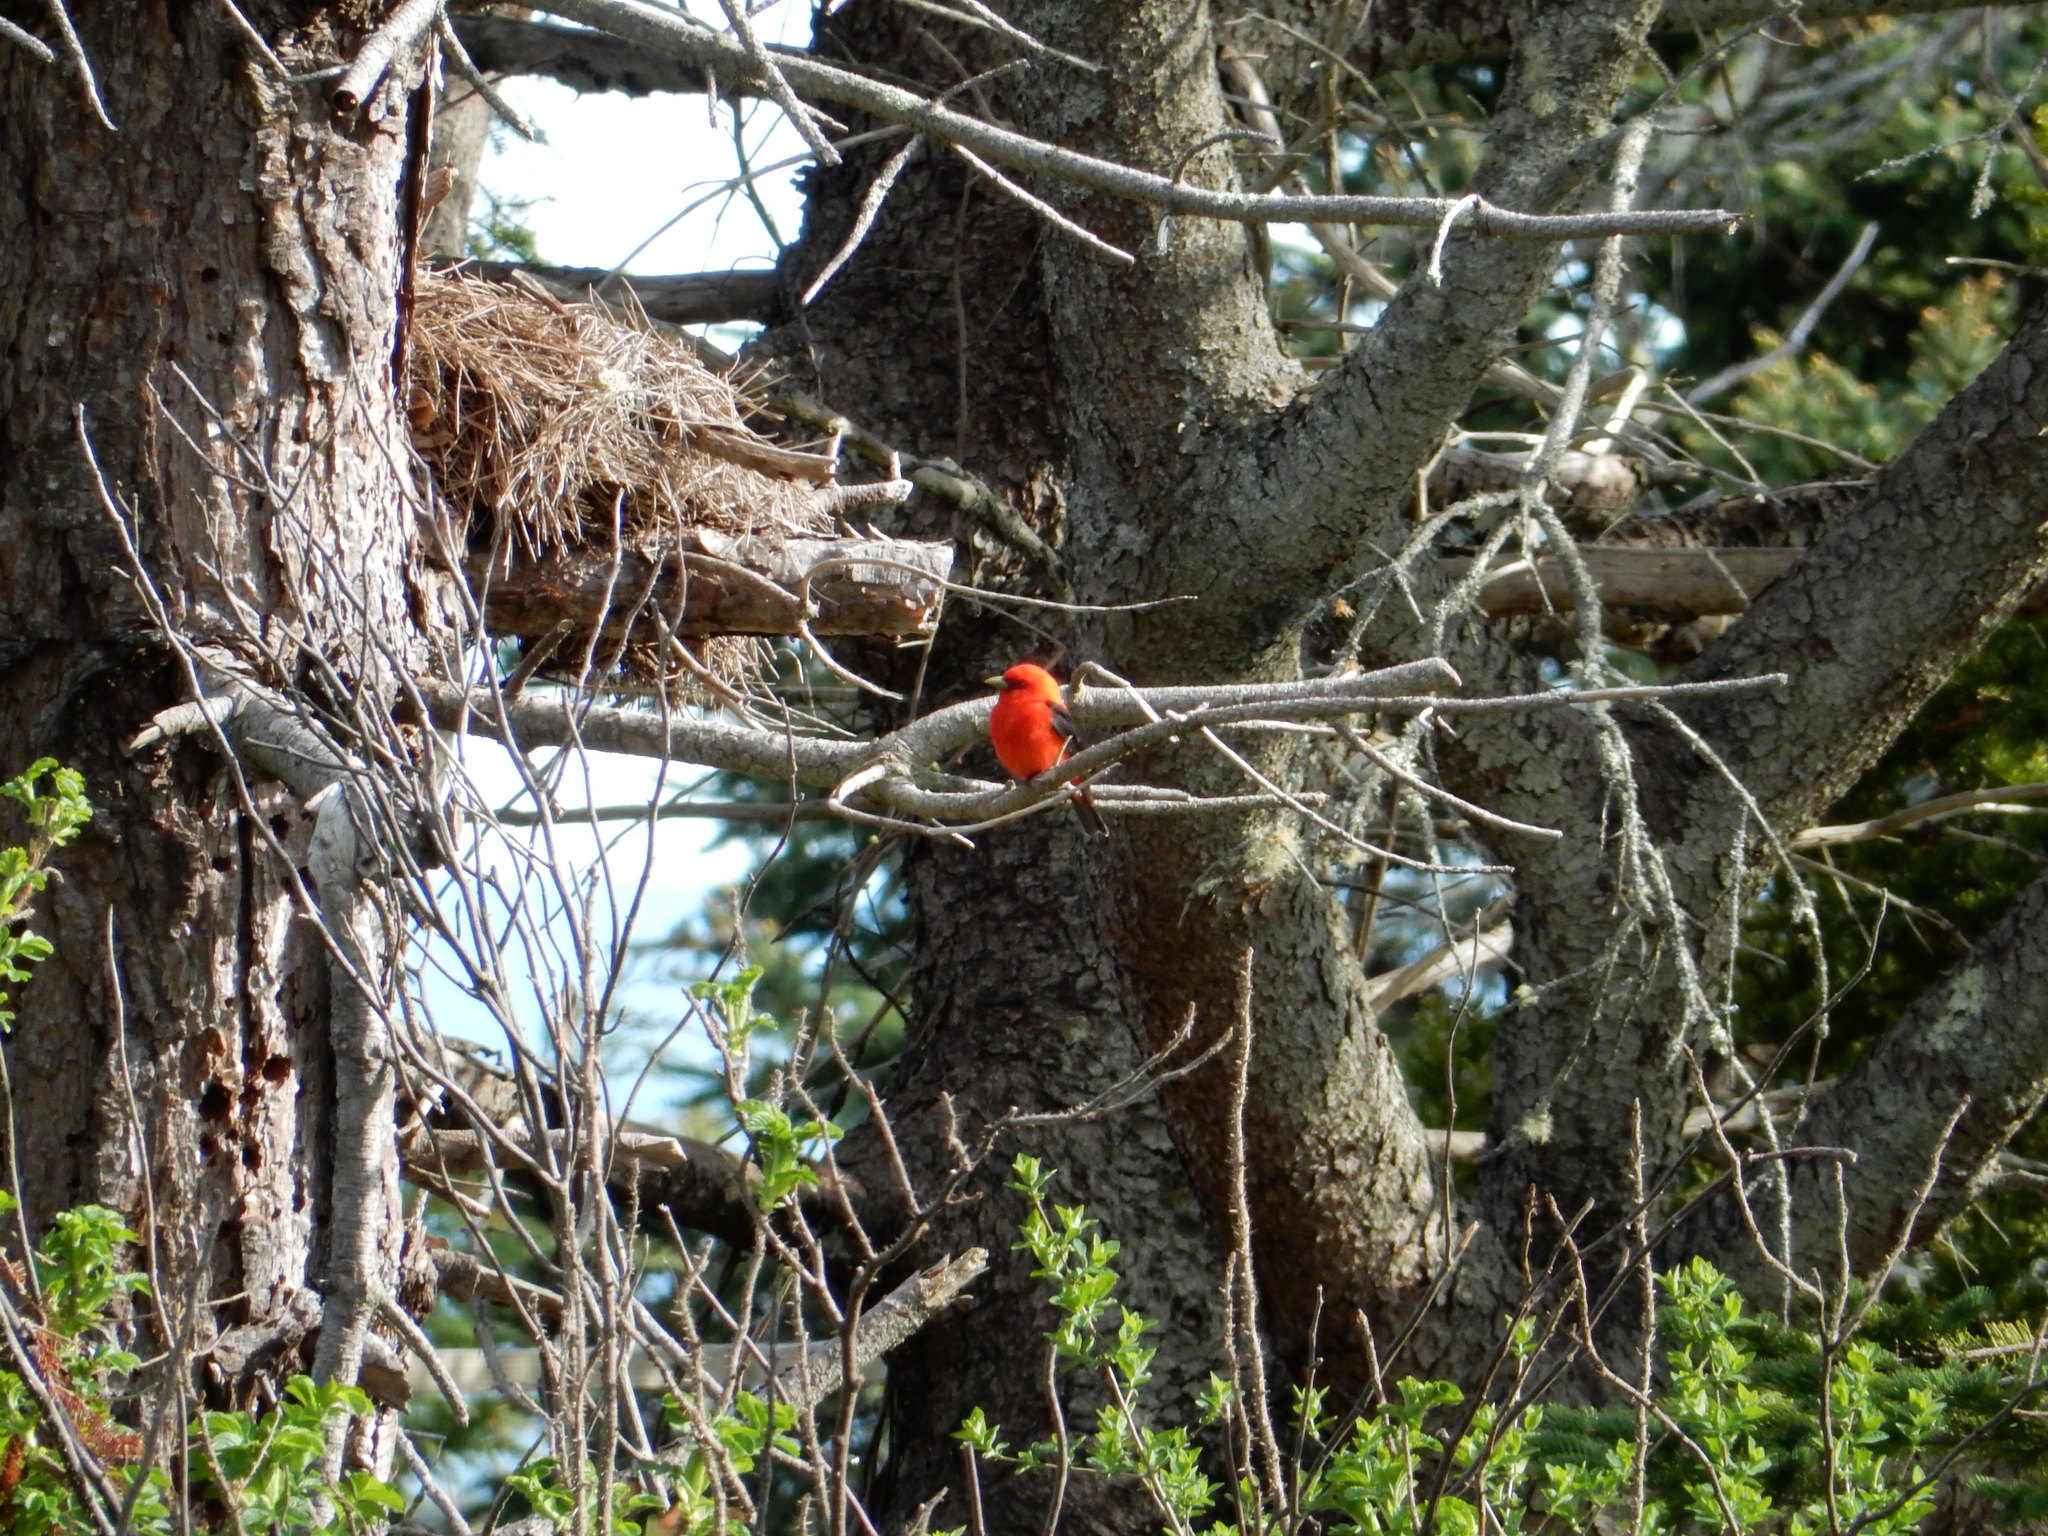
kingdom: Animalia
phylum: Chordata
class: Aves
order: Passeriformes
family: Cardinalidae
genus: Piranga
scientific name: Piranga olivacea
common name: Scarlet tanager
